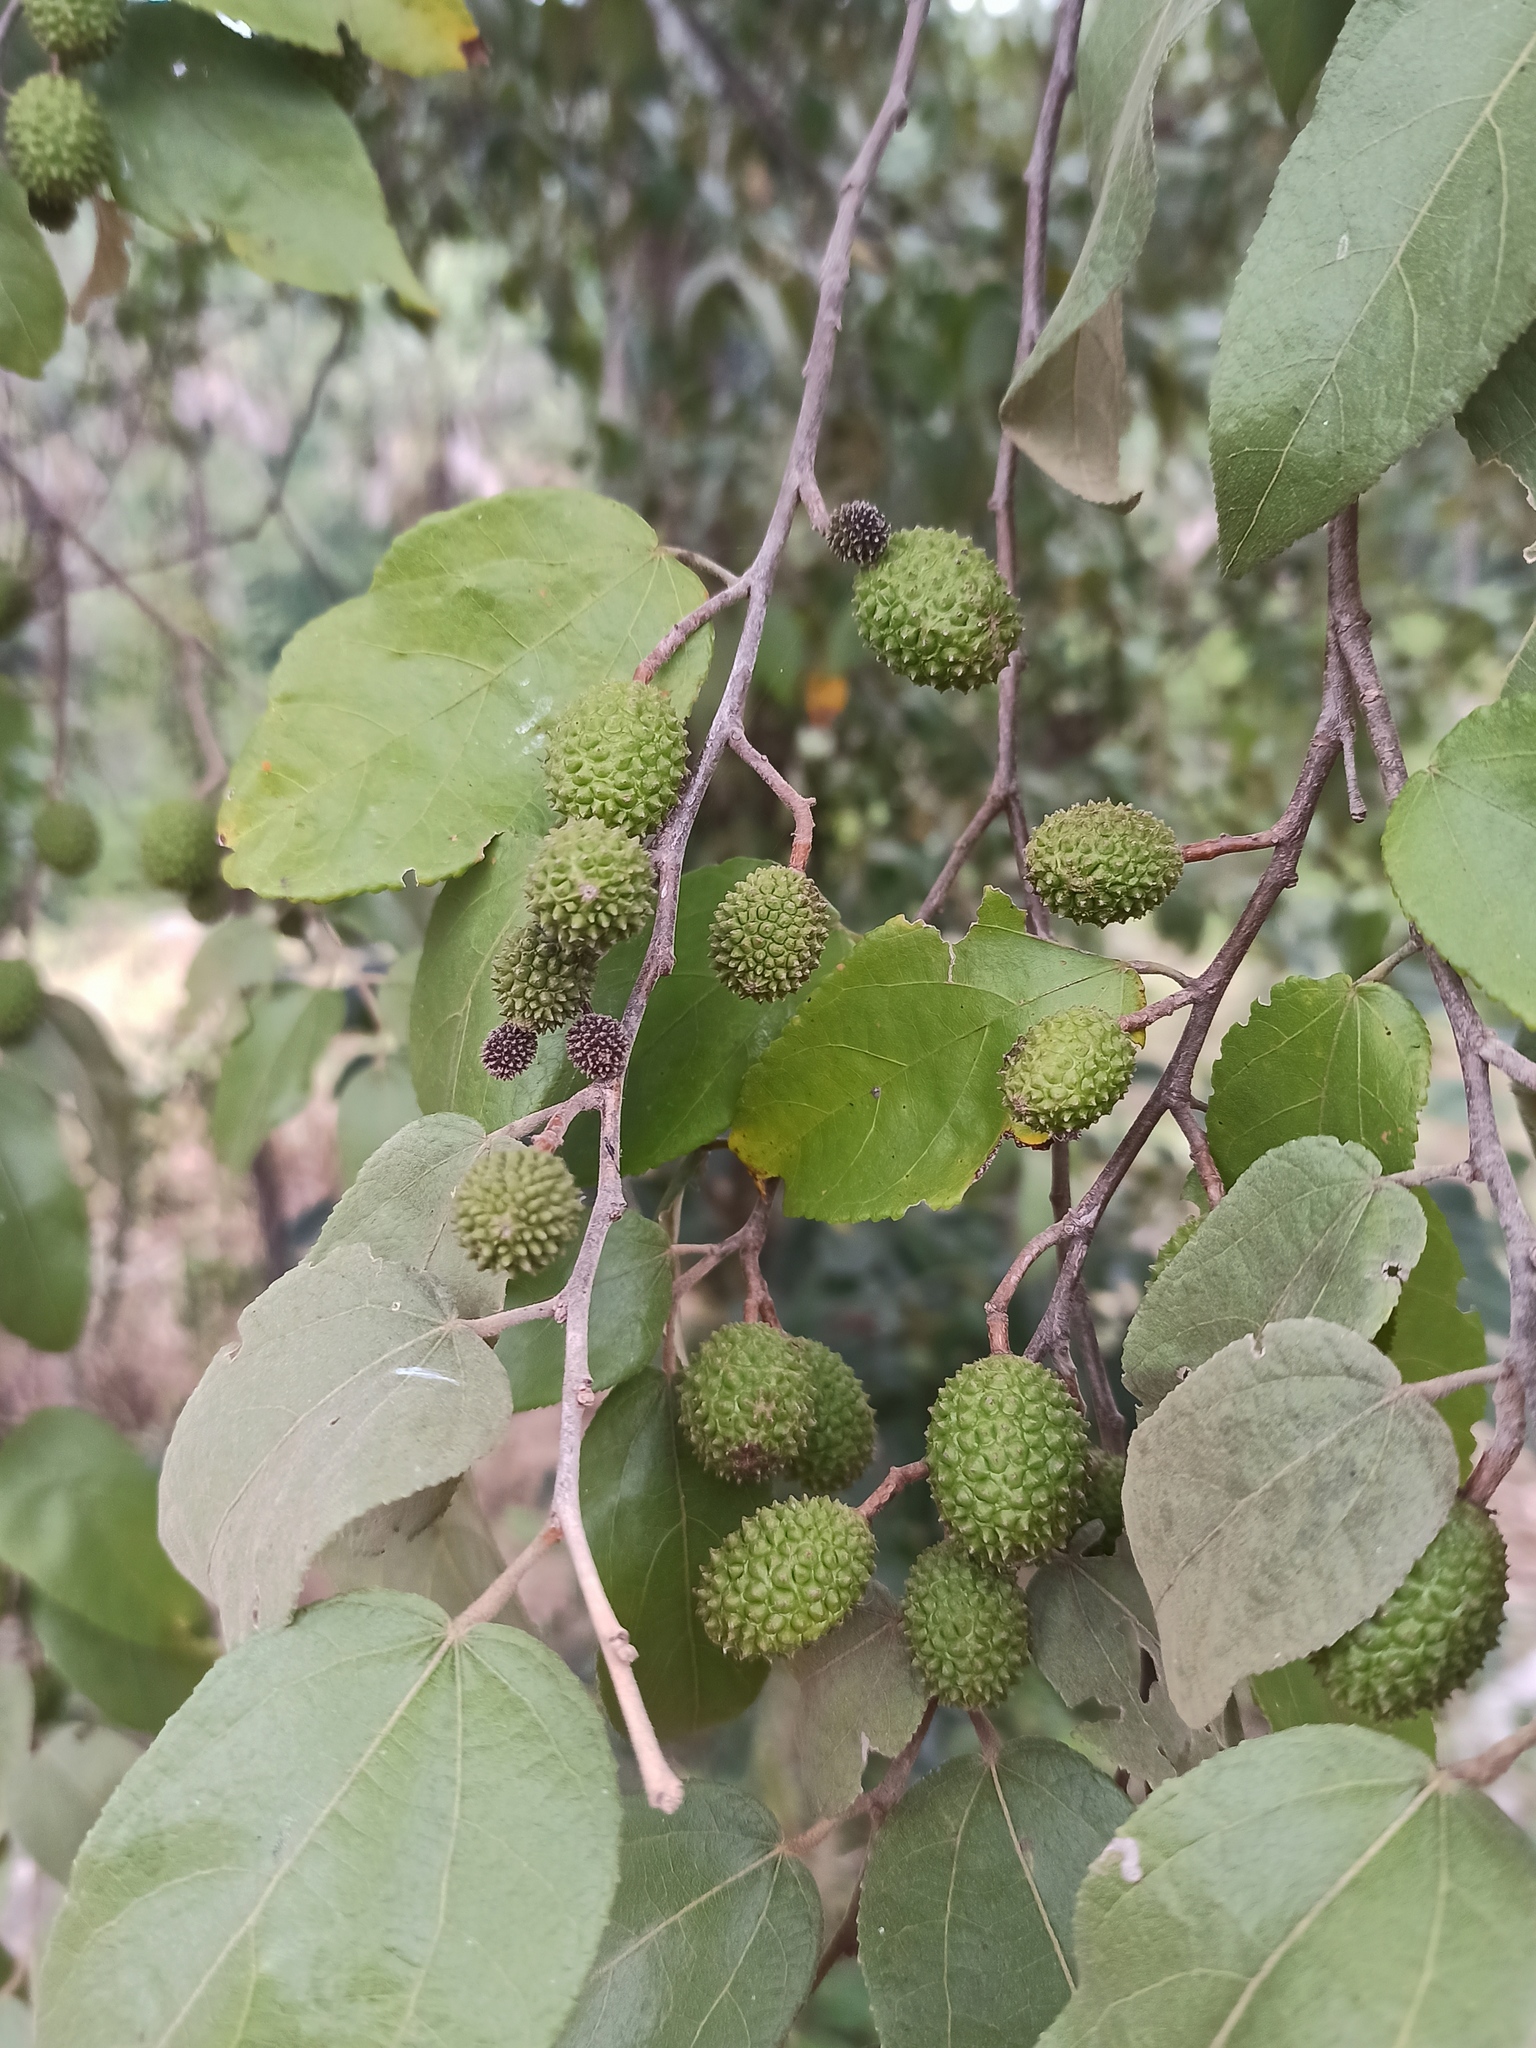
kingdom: Plantae
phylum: Tracheophyta
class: Magnoliopsida
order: Malvales
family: Malvaceae
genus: Guazuma
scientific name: Guazuma ulmifolia
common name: Bastard-cedar
